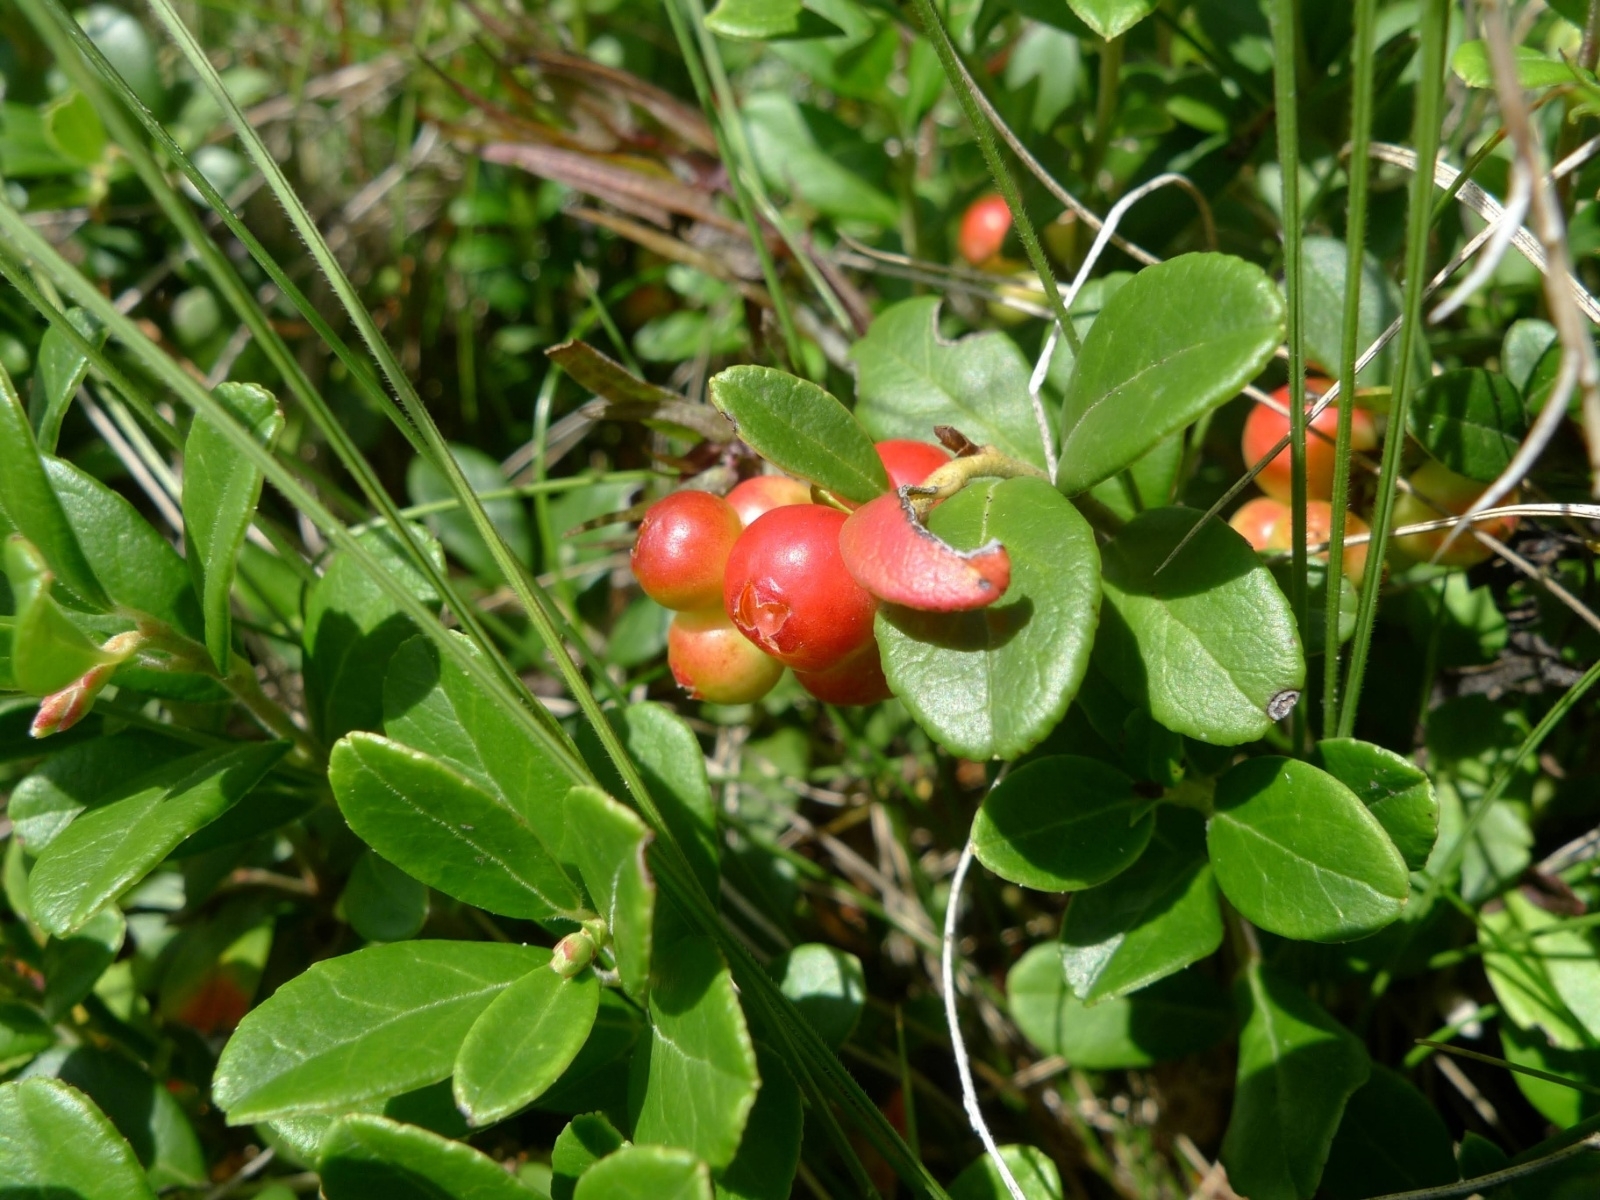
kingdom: Plantae
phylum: Tracheophyta
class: Magnoliopsida
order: Ericales
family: Ericaceae
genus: Vaccinium
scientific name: Vaccinium vitis-idaea
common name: Cowberry
